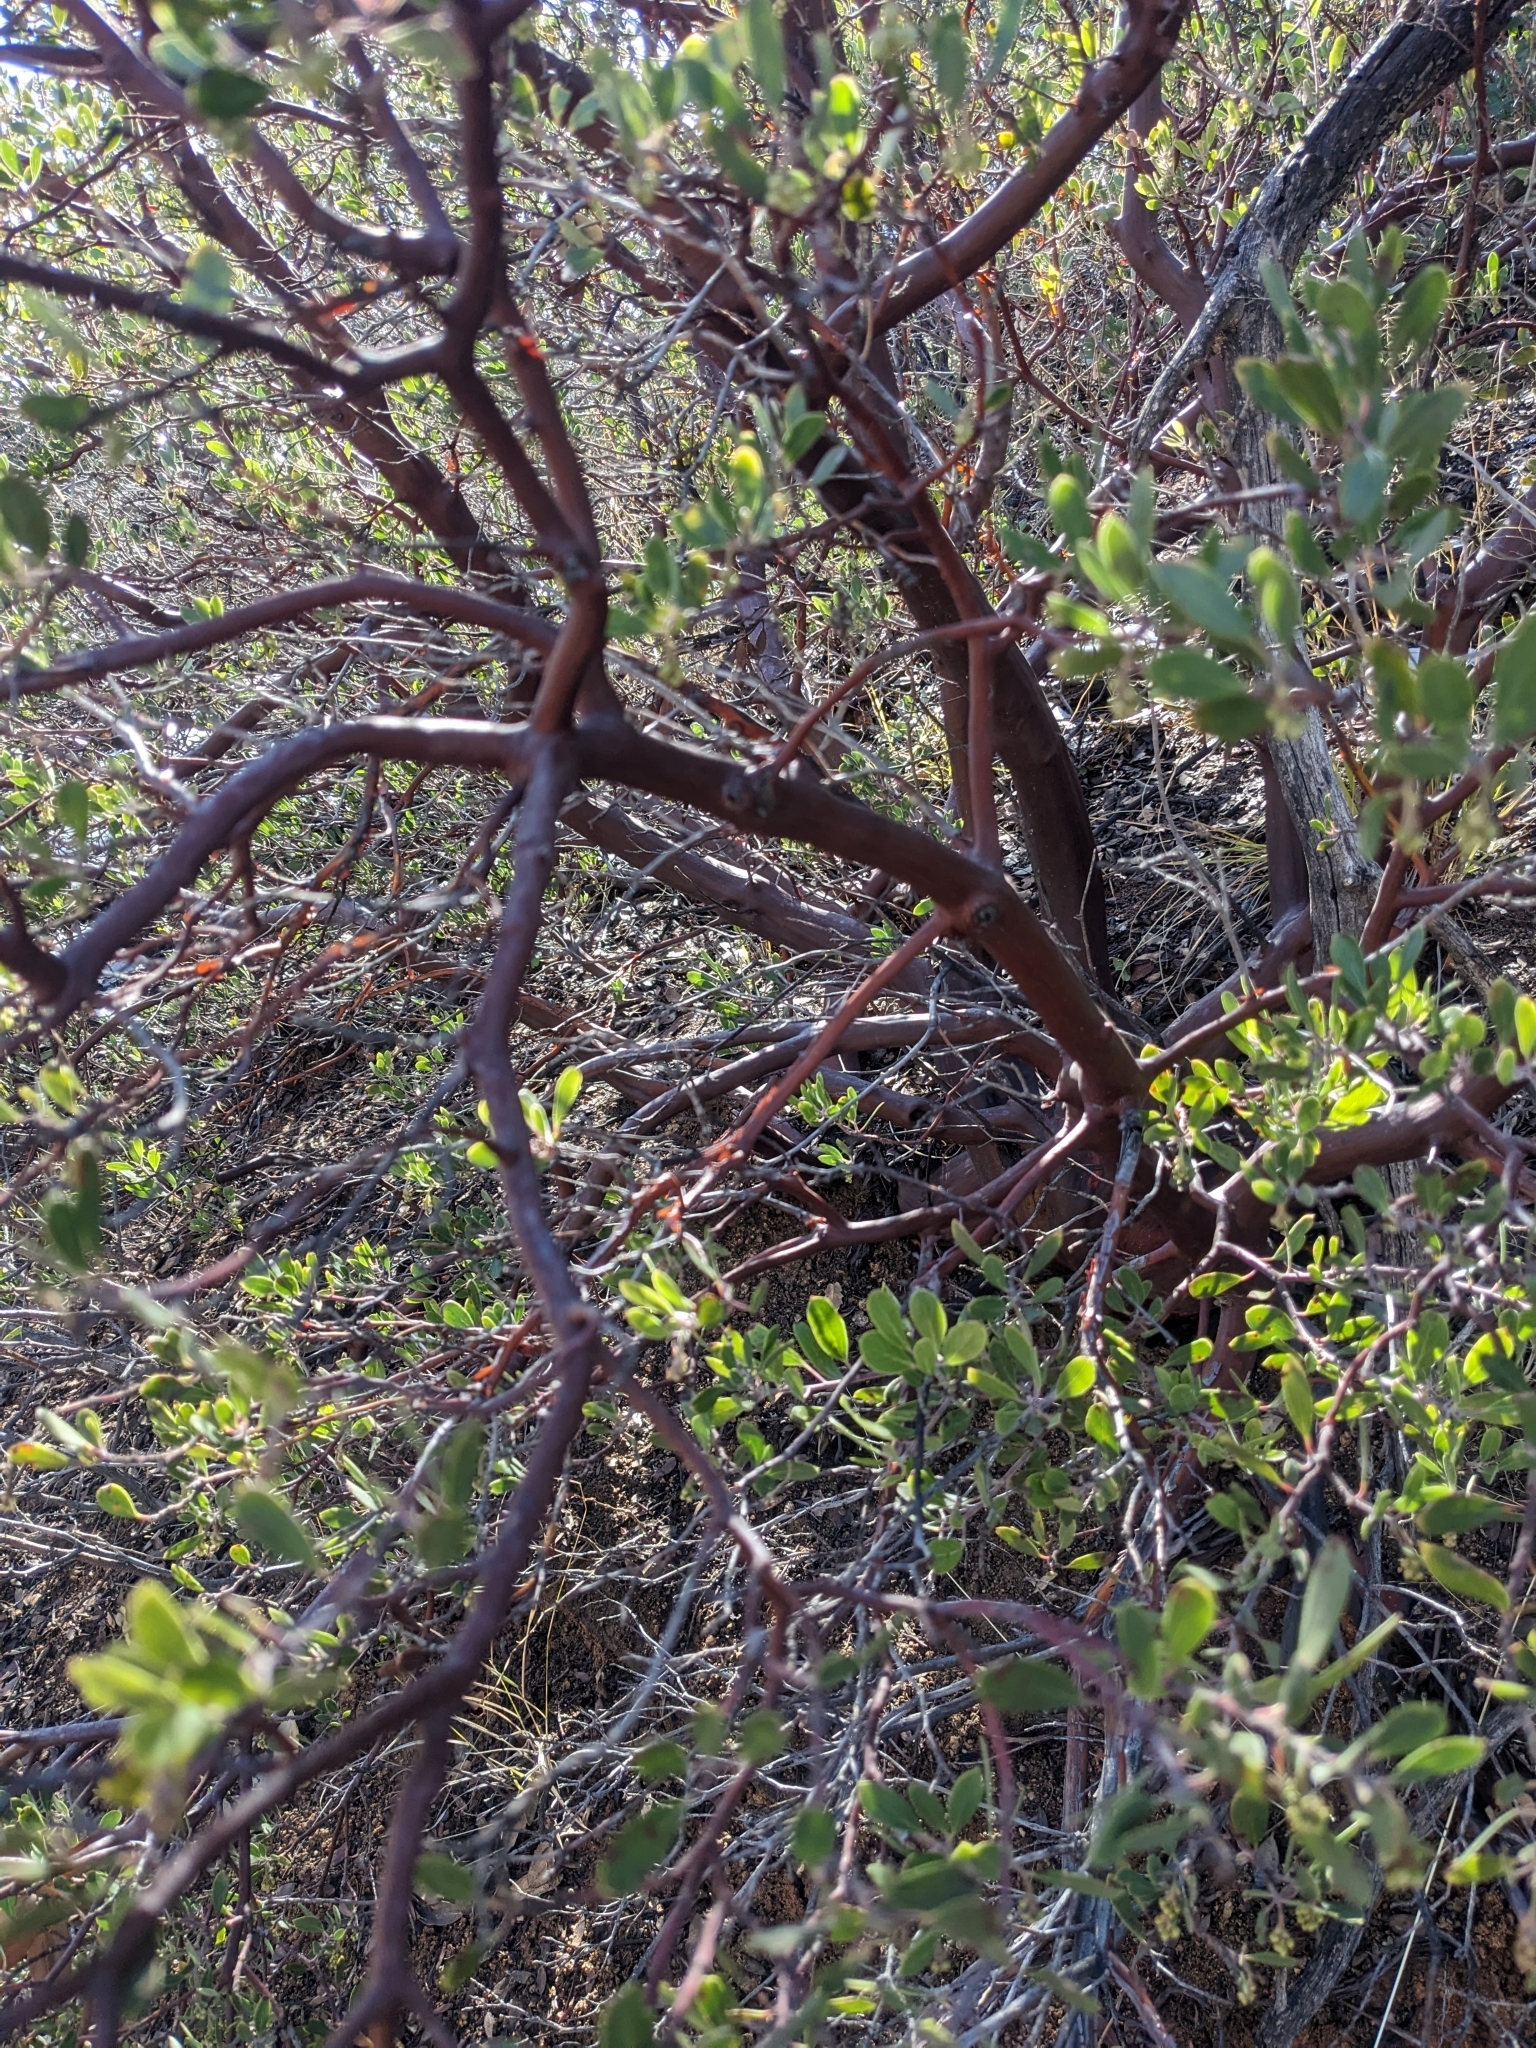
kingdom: Plantae
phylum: Tracheophyta
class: Magnoliopsida
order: Ericales
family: Ericaceae
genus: Arctostaphylos
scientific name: Arctostaphylos pungens
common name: Mexican manzanita
